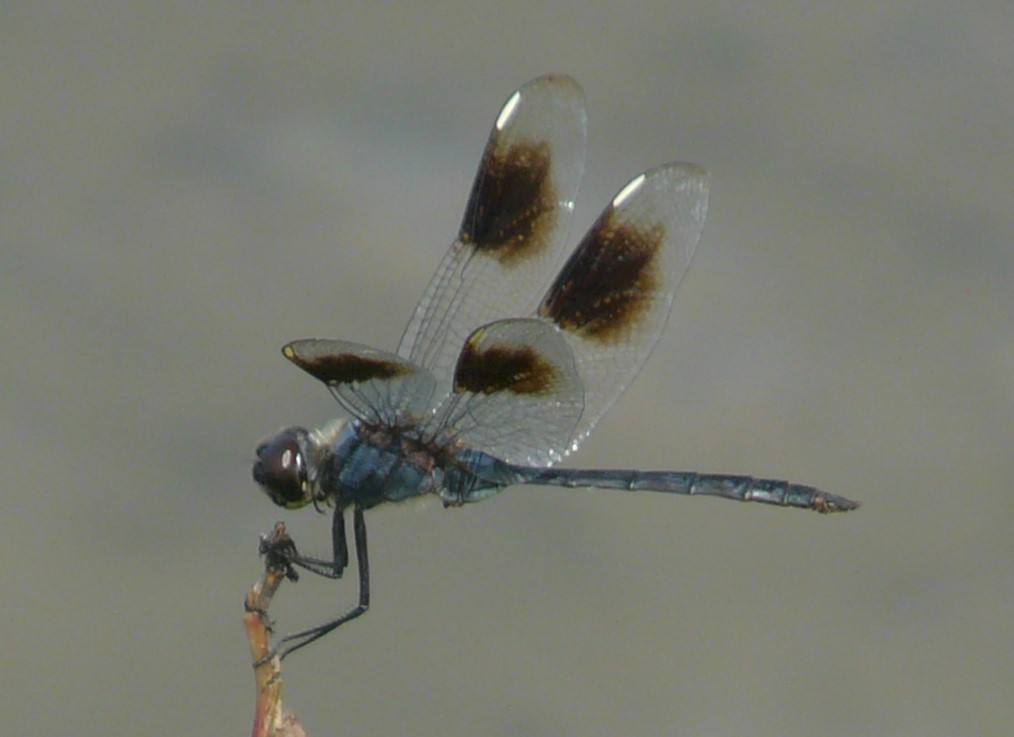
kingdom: Animalia
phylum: Arthropoda
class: Insecta
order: Odonata
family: Libellulidae
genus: Brachymesia
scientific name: Brachymesia gravida
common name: Four-spotted pennant
